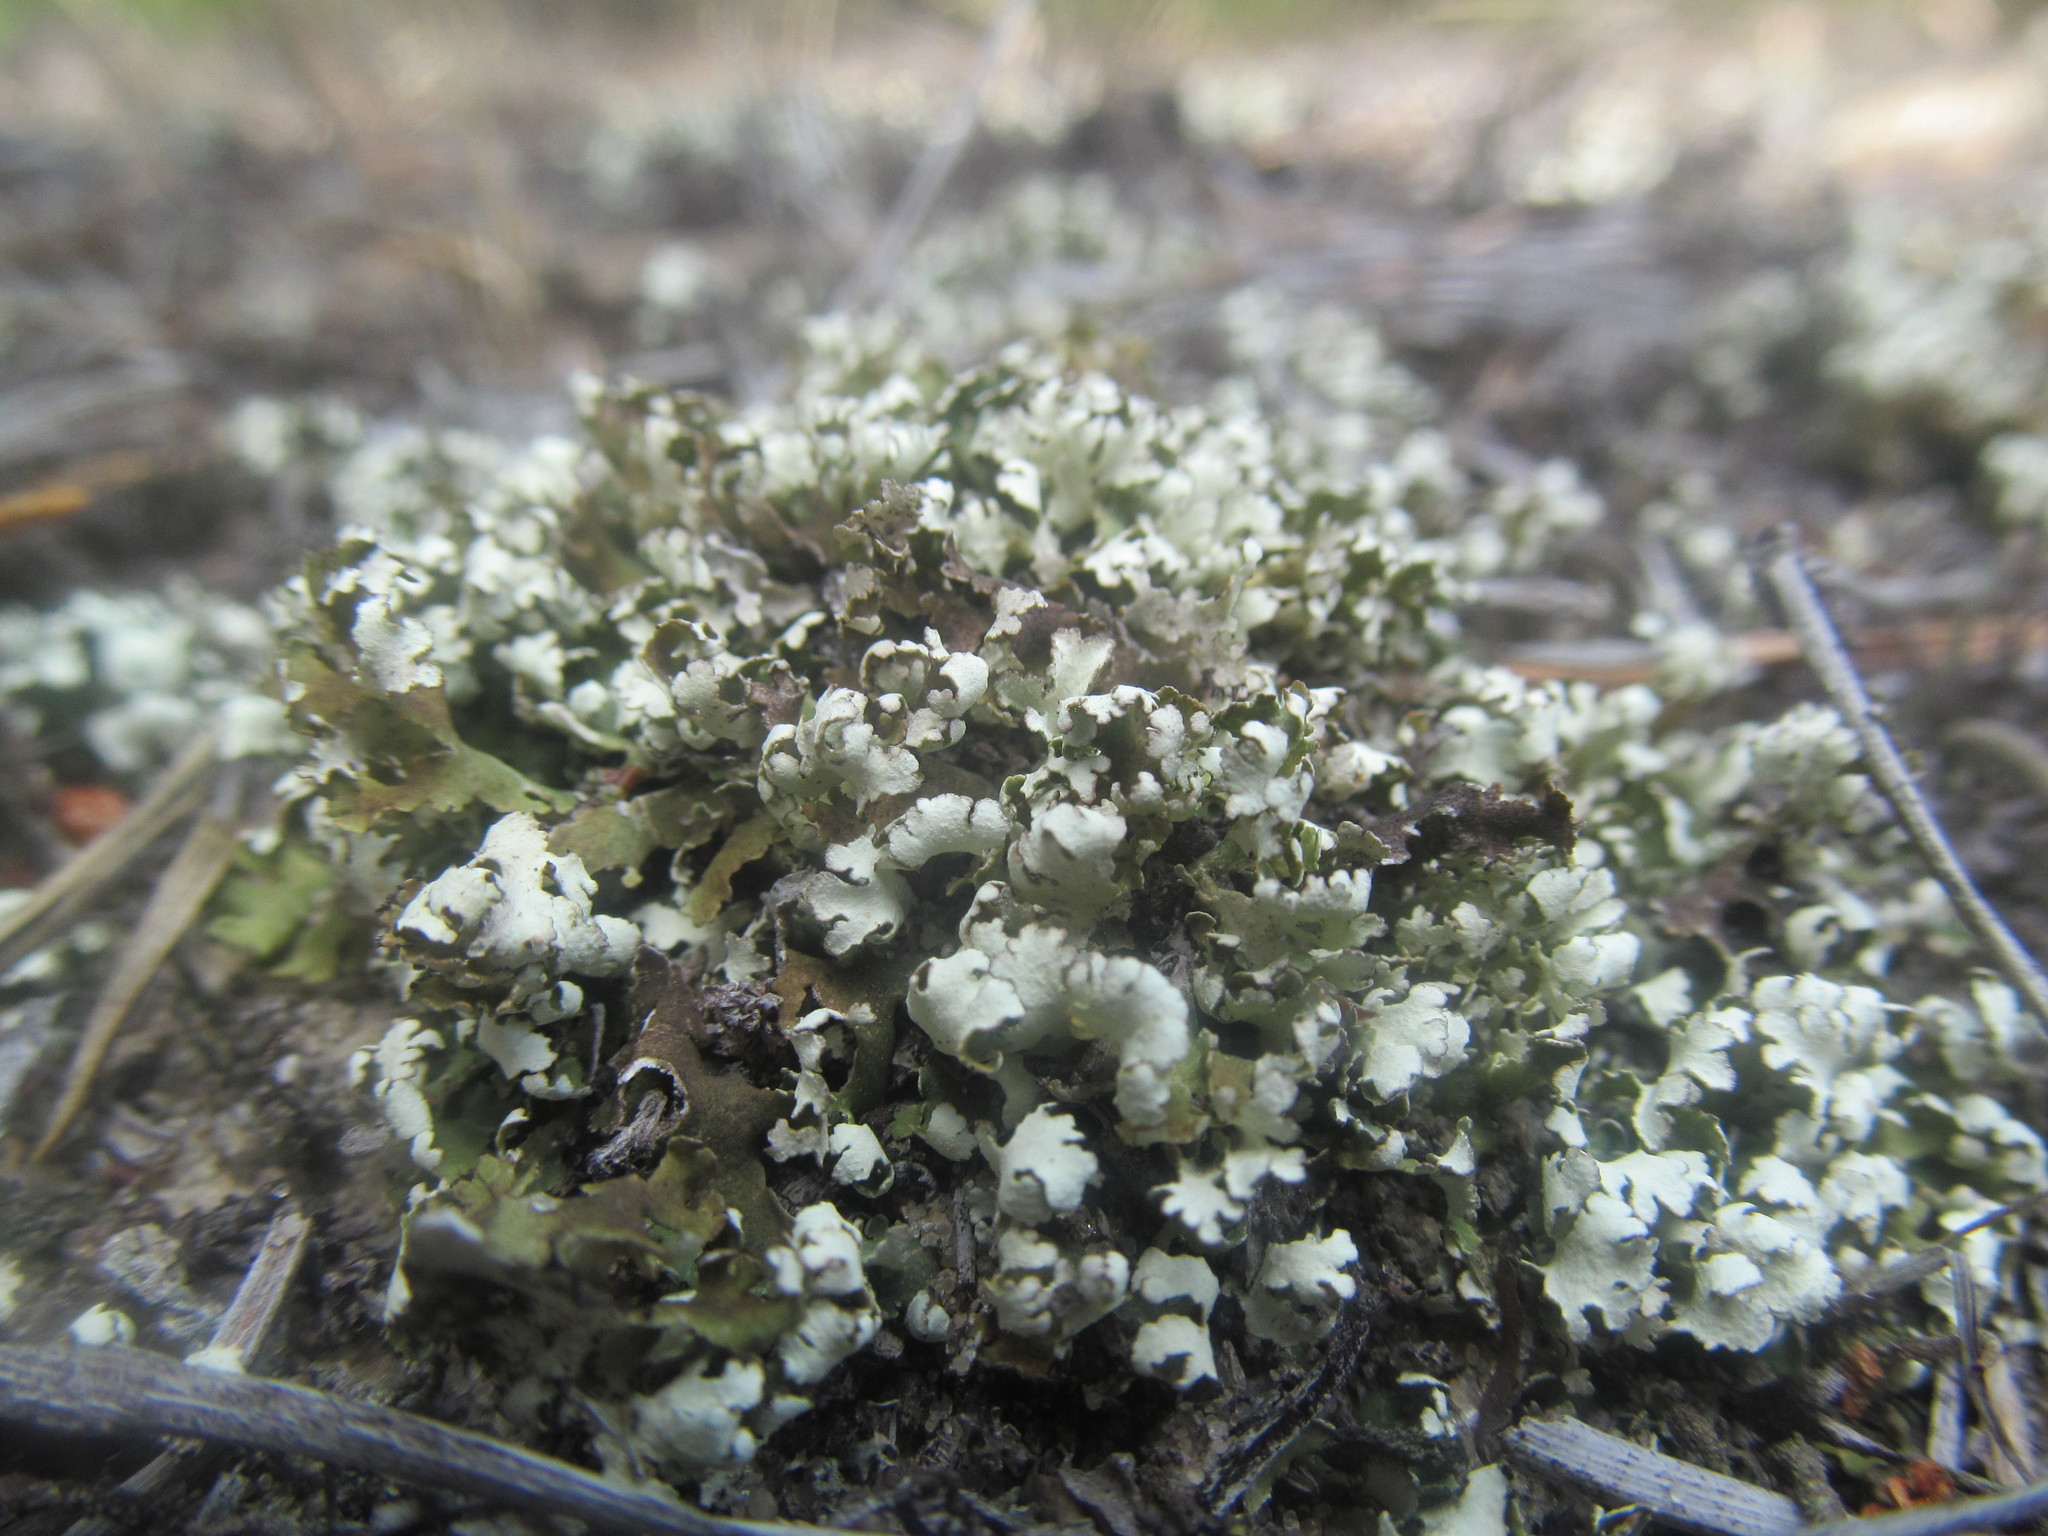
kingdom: Fungi
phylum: Ascomycota
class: Lecanoromycetes
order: Lecanorales
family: Cladoniaceae
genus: Cladonia
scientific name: Cladonia foliacea
